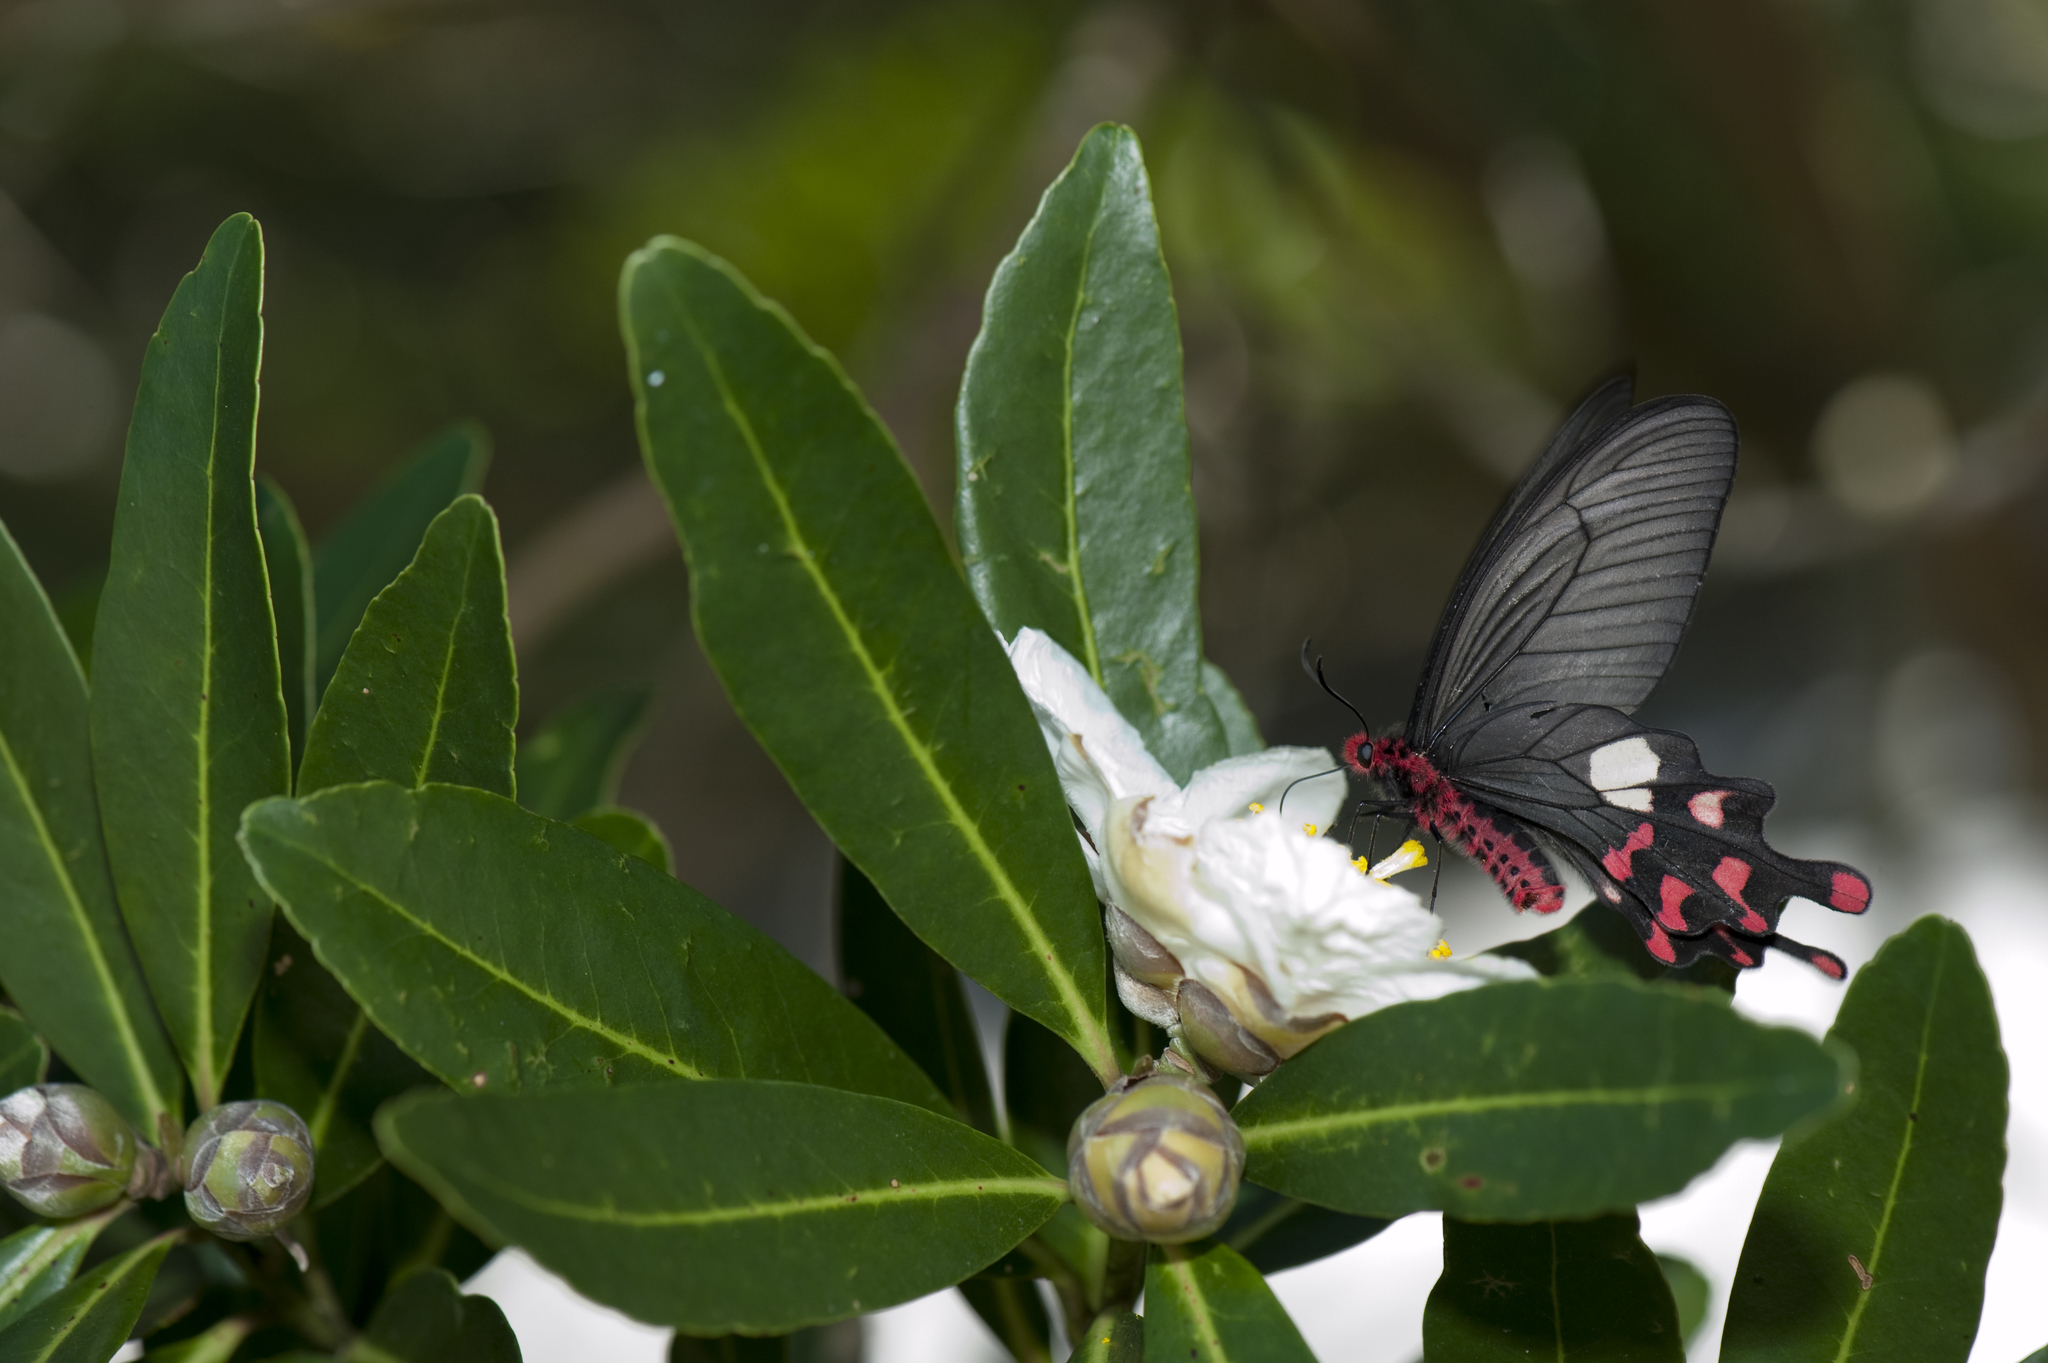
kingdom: Animalia
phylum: Arthropoda
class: Insecta
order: Lepidoptera
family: Papilionidae
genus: Byasa
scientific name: Byasa polyeuctes
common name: Common windmill
